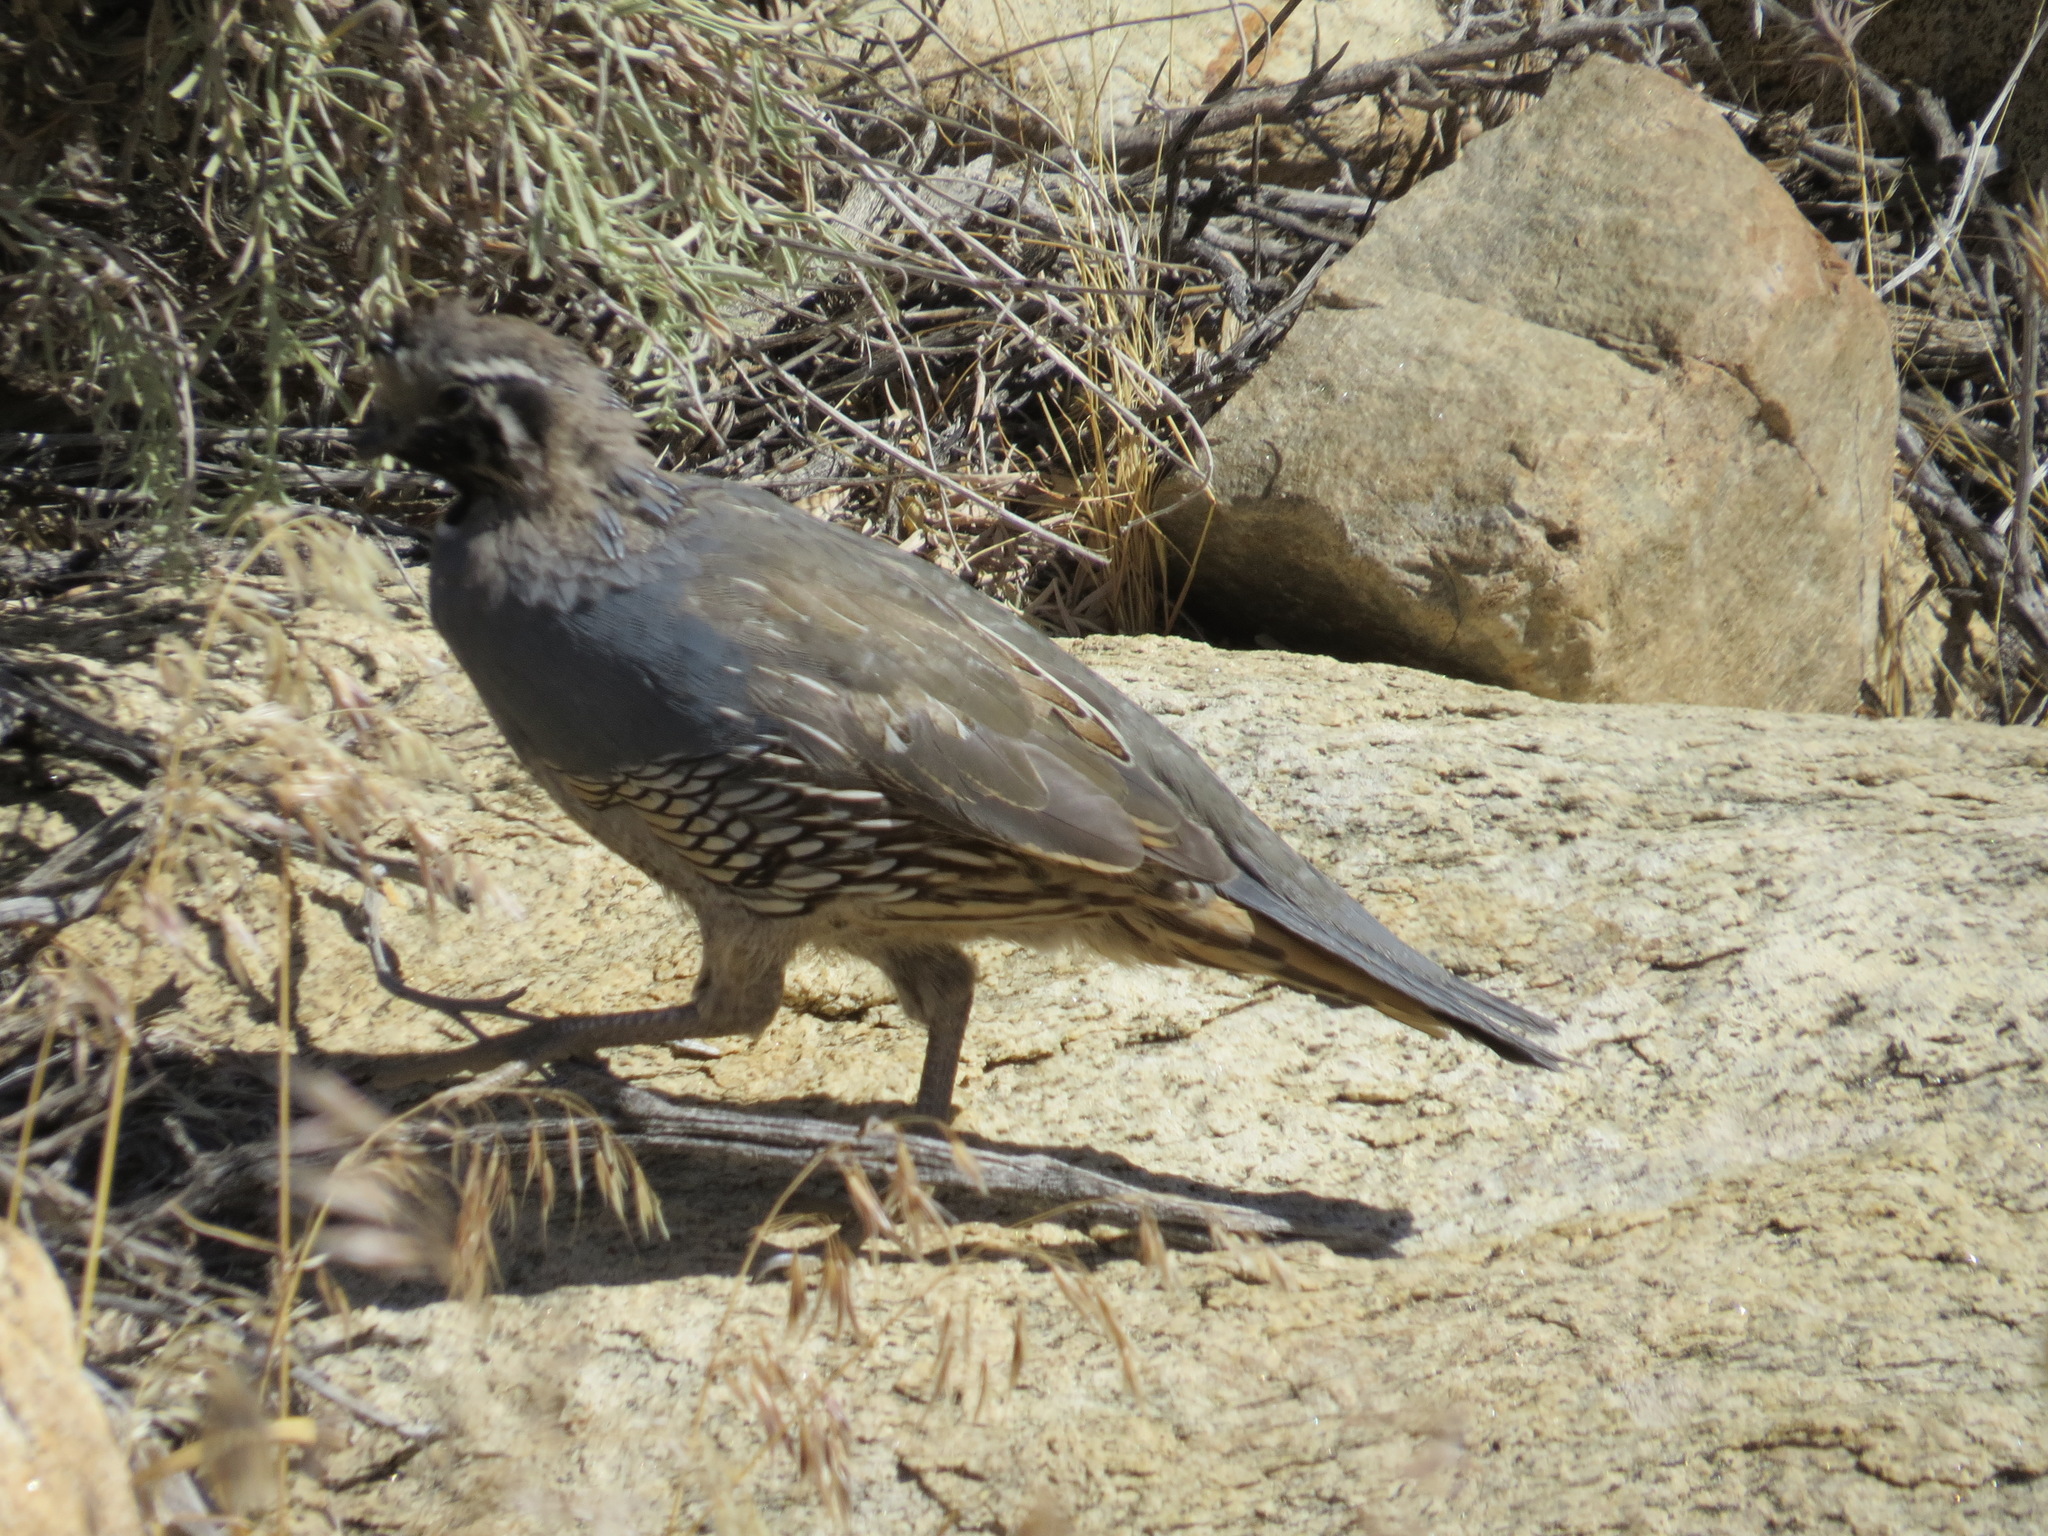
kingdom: Animalia
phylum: Chordata
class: Aves
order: Galliformes
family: Odontophoridae
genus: Callipepla
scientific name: Callipepla californica
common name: California quail
